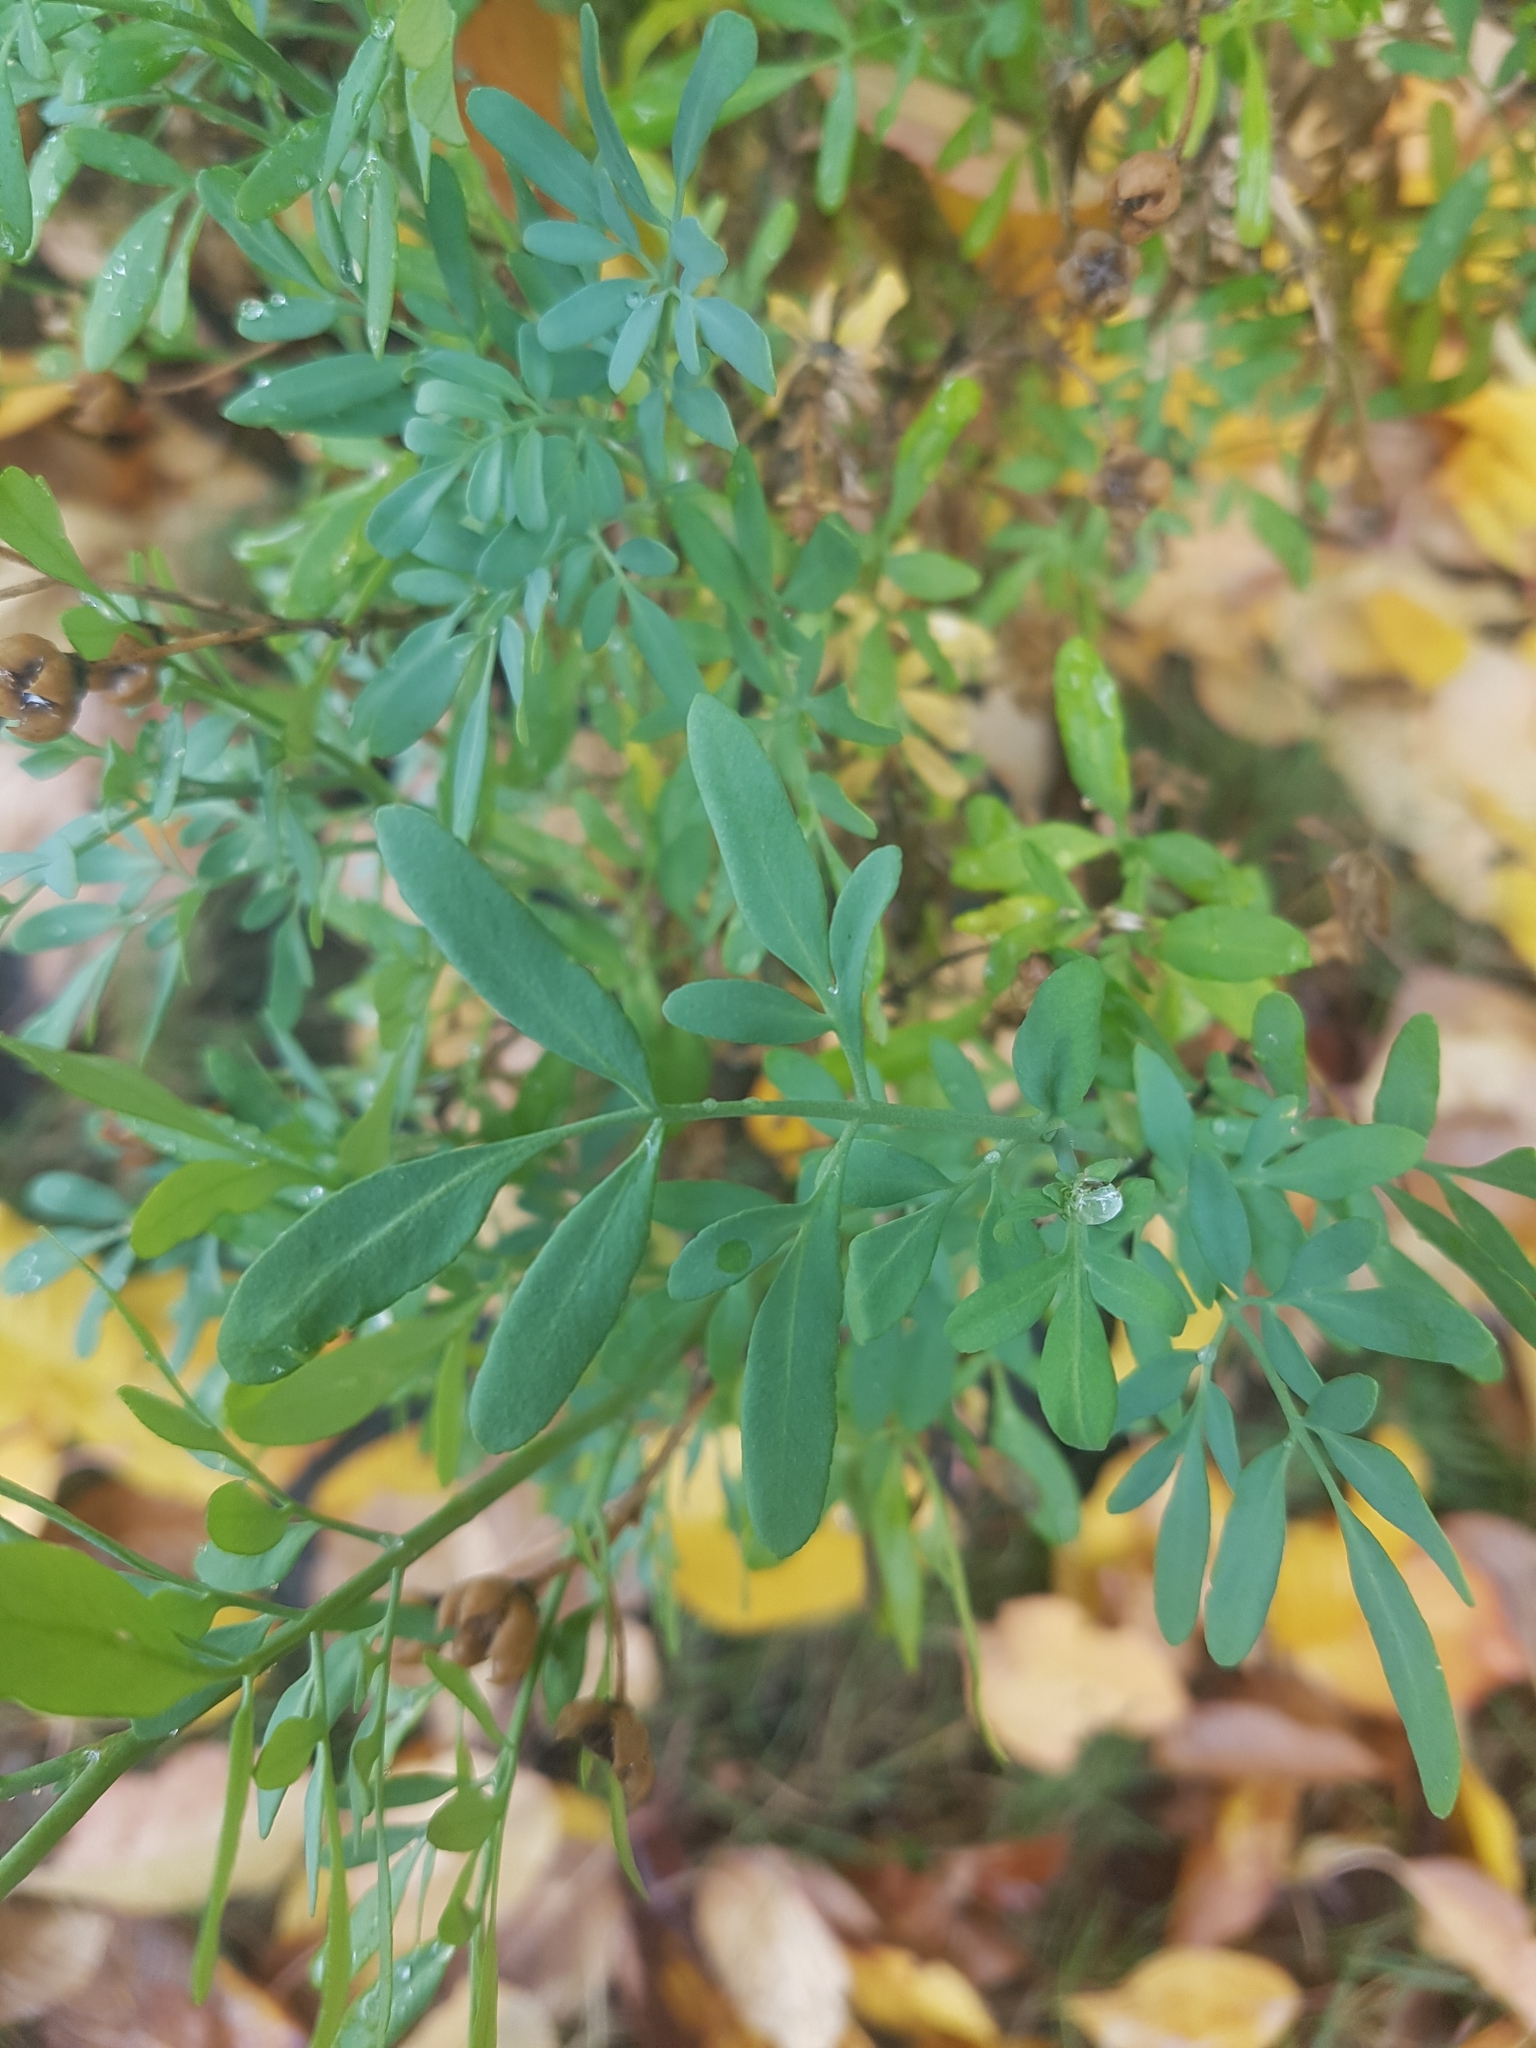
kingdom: Plantae
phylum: Tracheophyta
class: Magnoliopsida
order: Sapindales
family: Rutaceae
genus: Ruta
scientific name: Ruta graveolens
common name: Common rue
